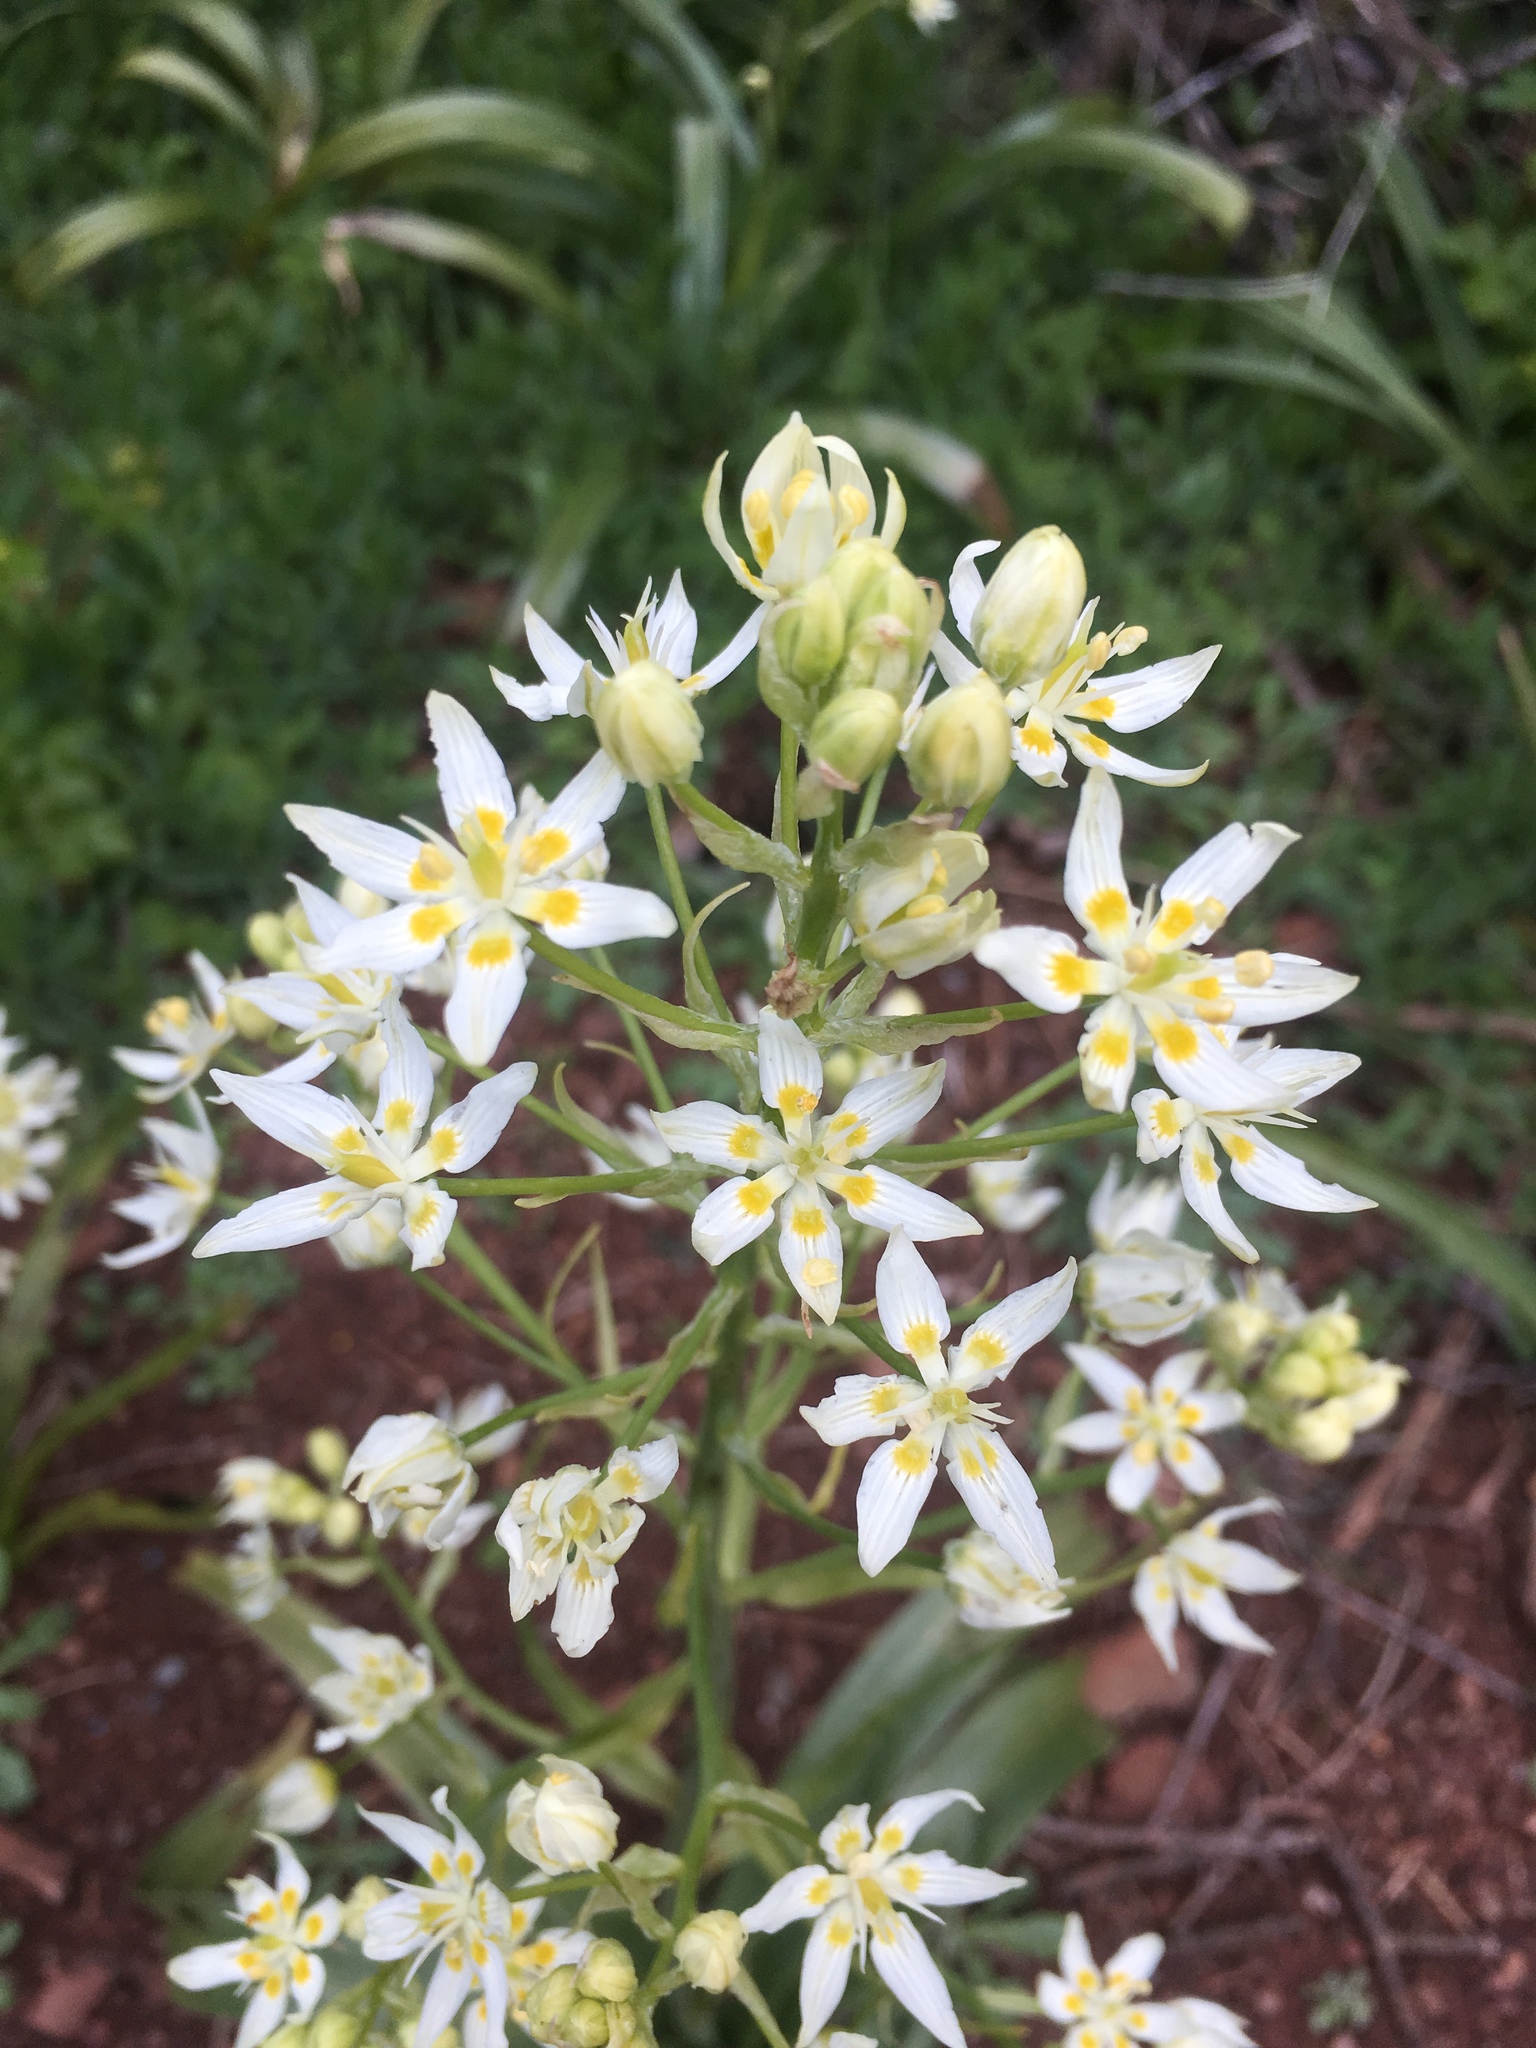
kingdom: Plantae
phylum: Tracheophyta
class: Liliopsida
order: Liliales
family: Melanthiaceae
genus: Toxicoscordion
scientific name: Toxicoscordion fremontii
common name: Fremont's death camas
